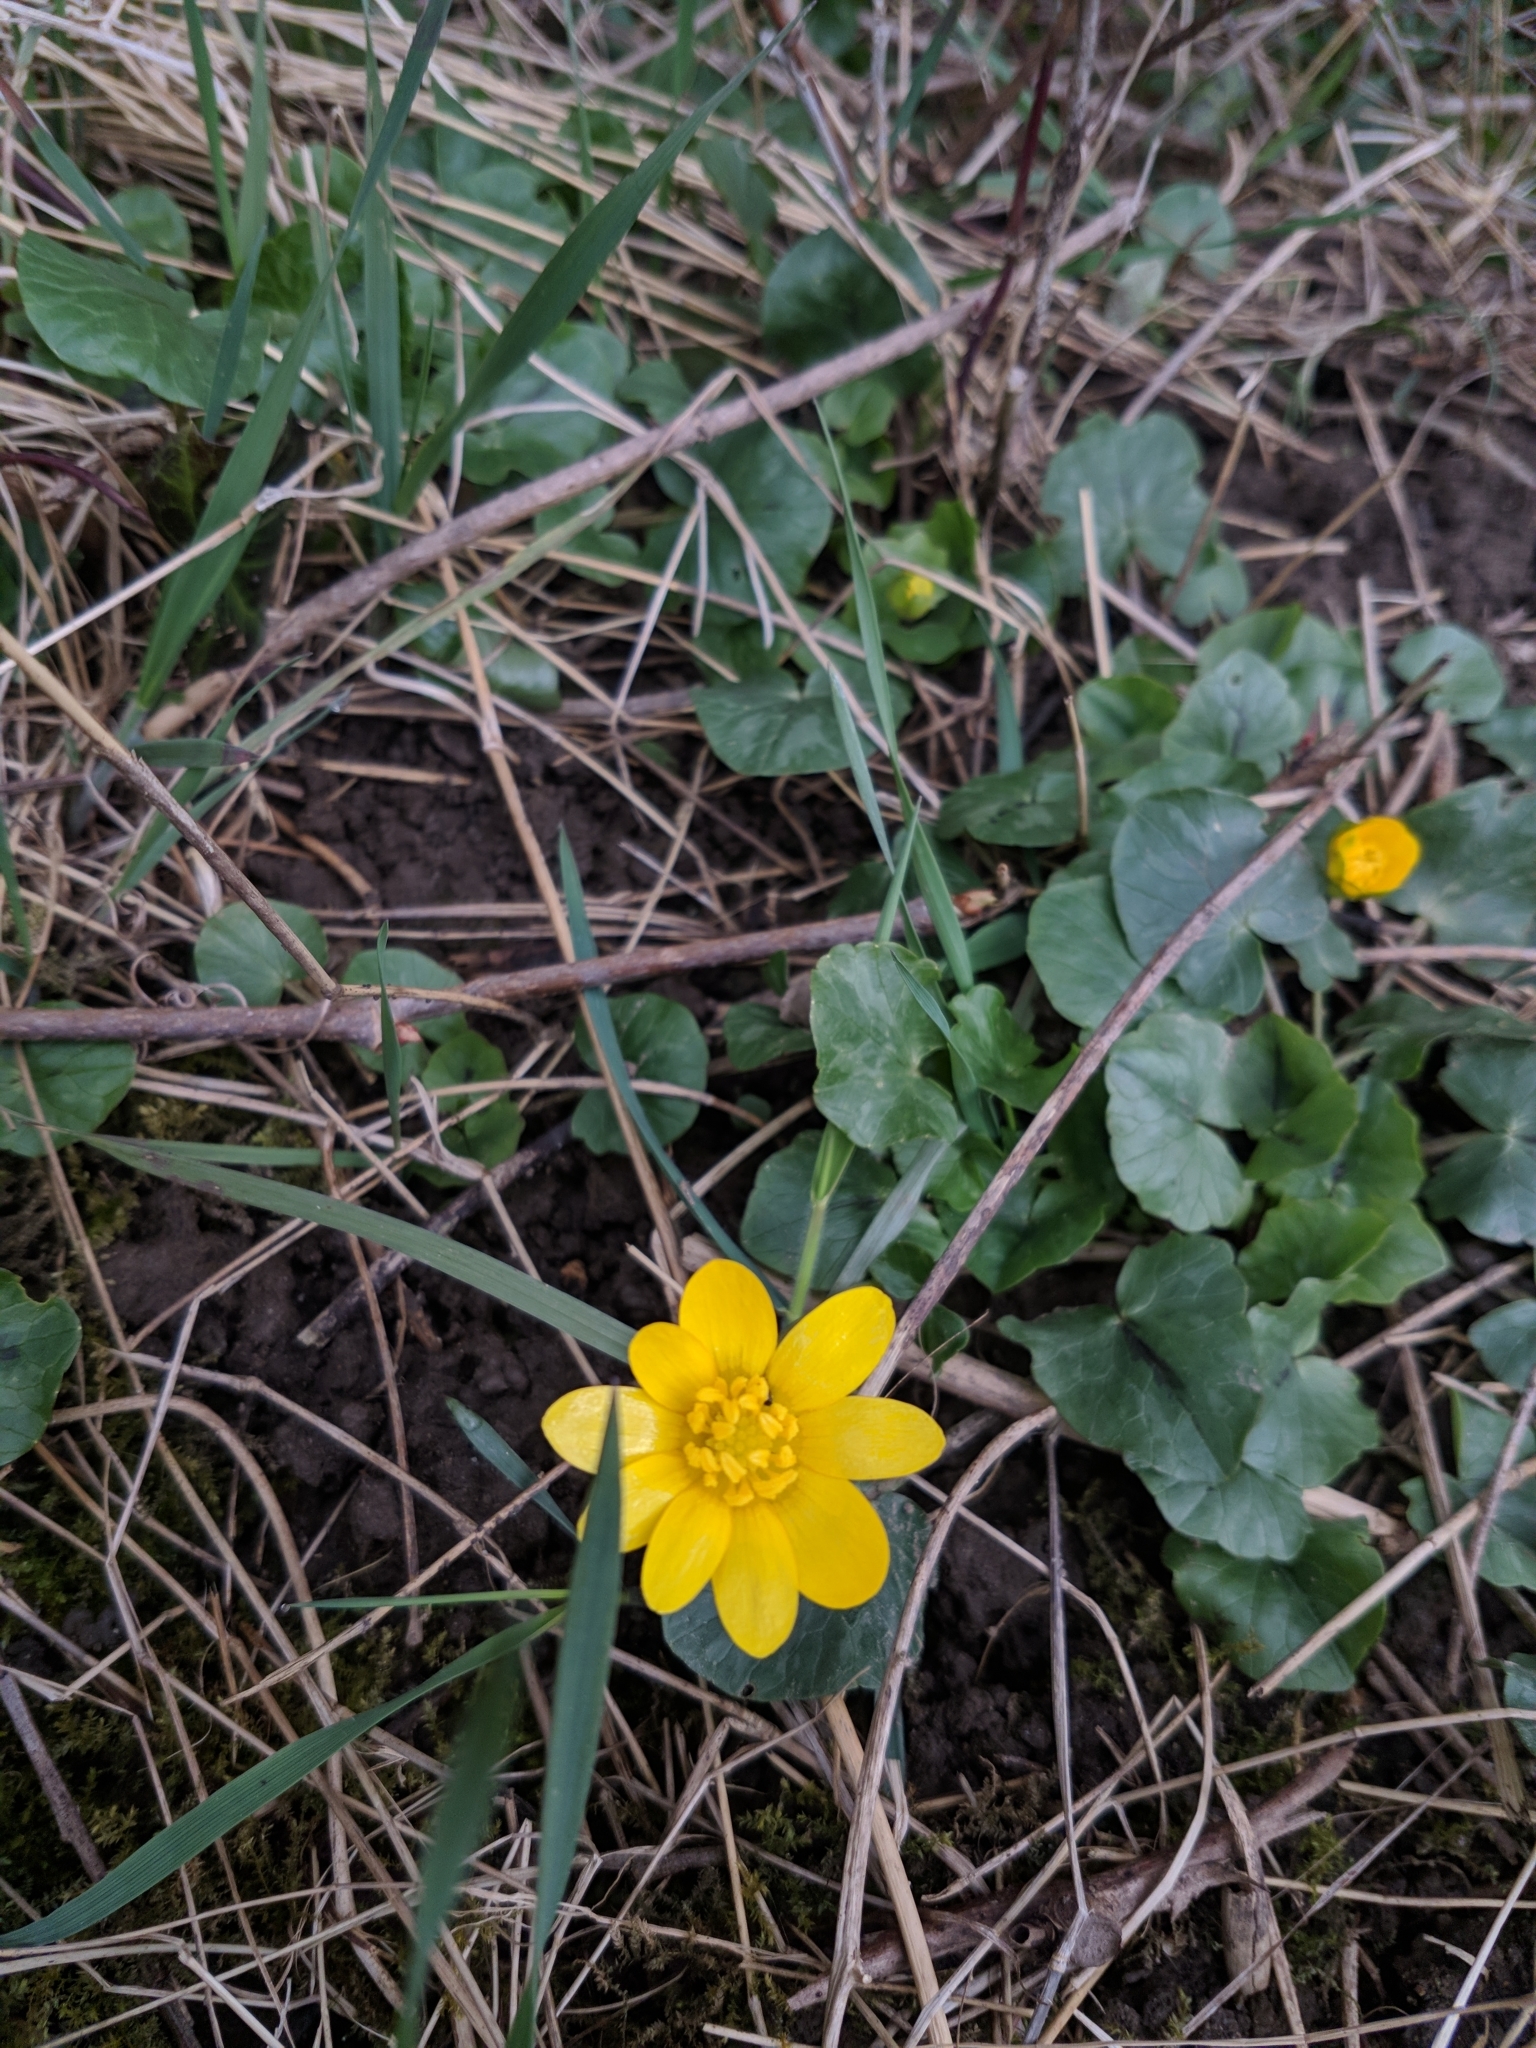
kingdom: Plantae
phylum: Tracheophyta
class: Magnoliopsida
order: Ranunculales
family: Ranunculaceae
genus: Ficaria
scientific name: Ficaria verna
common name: Lesser celandine
